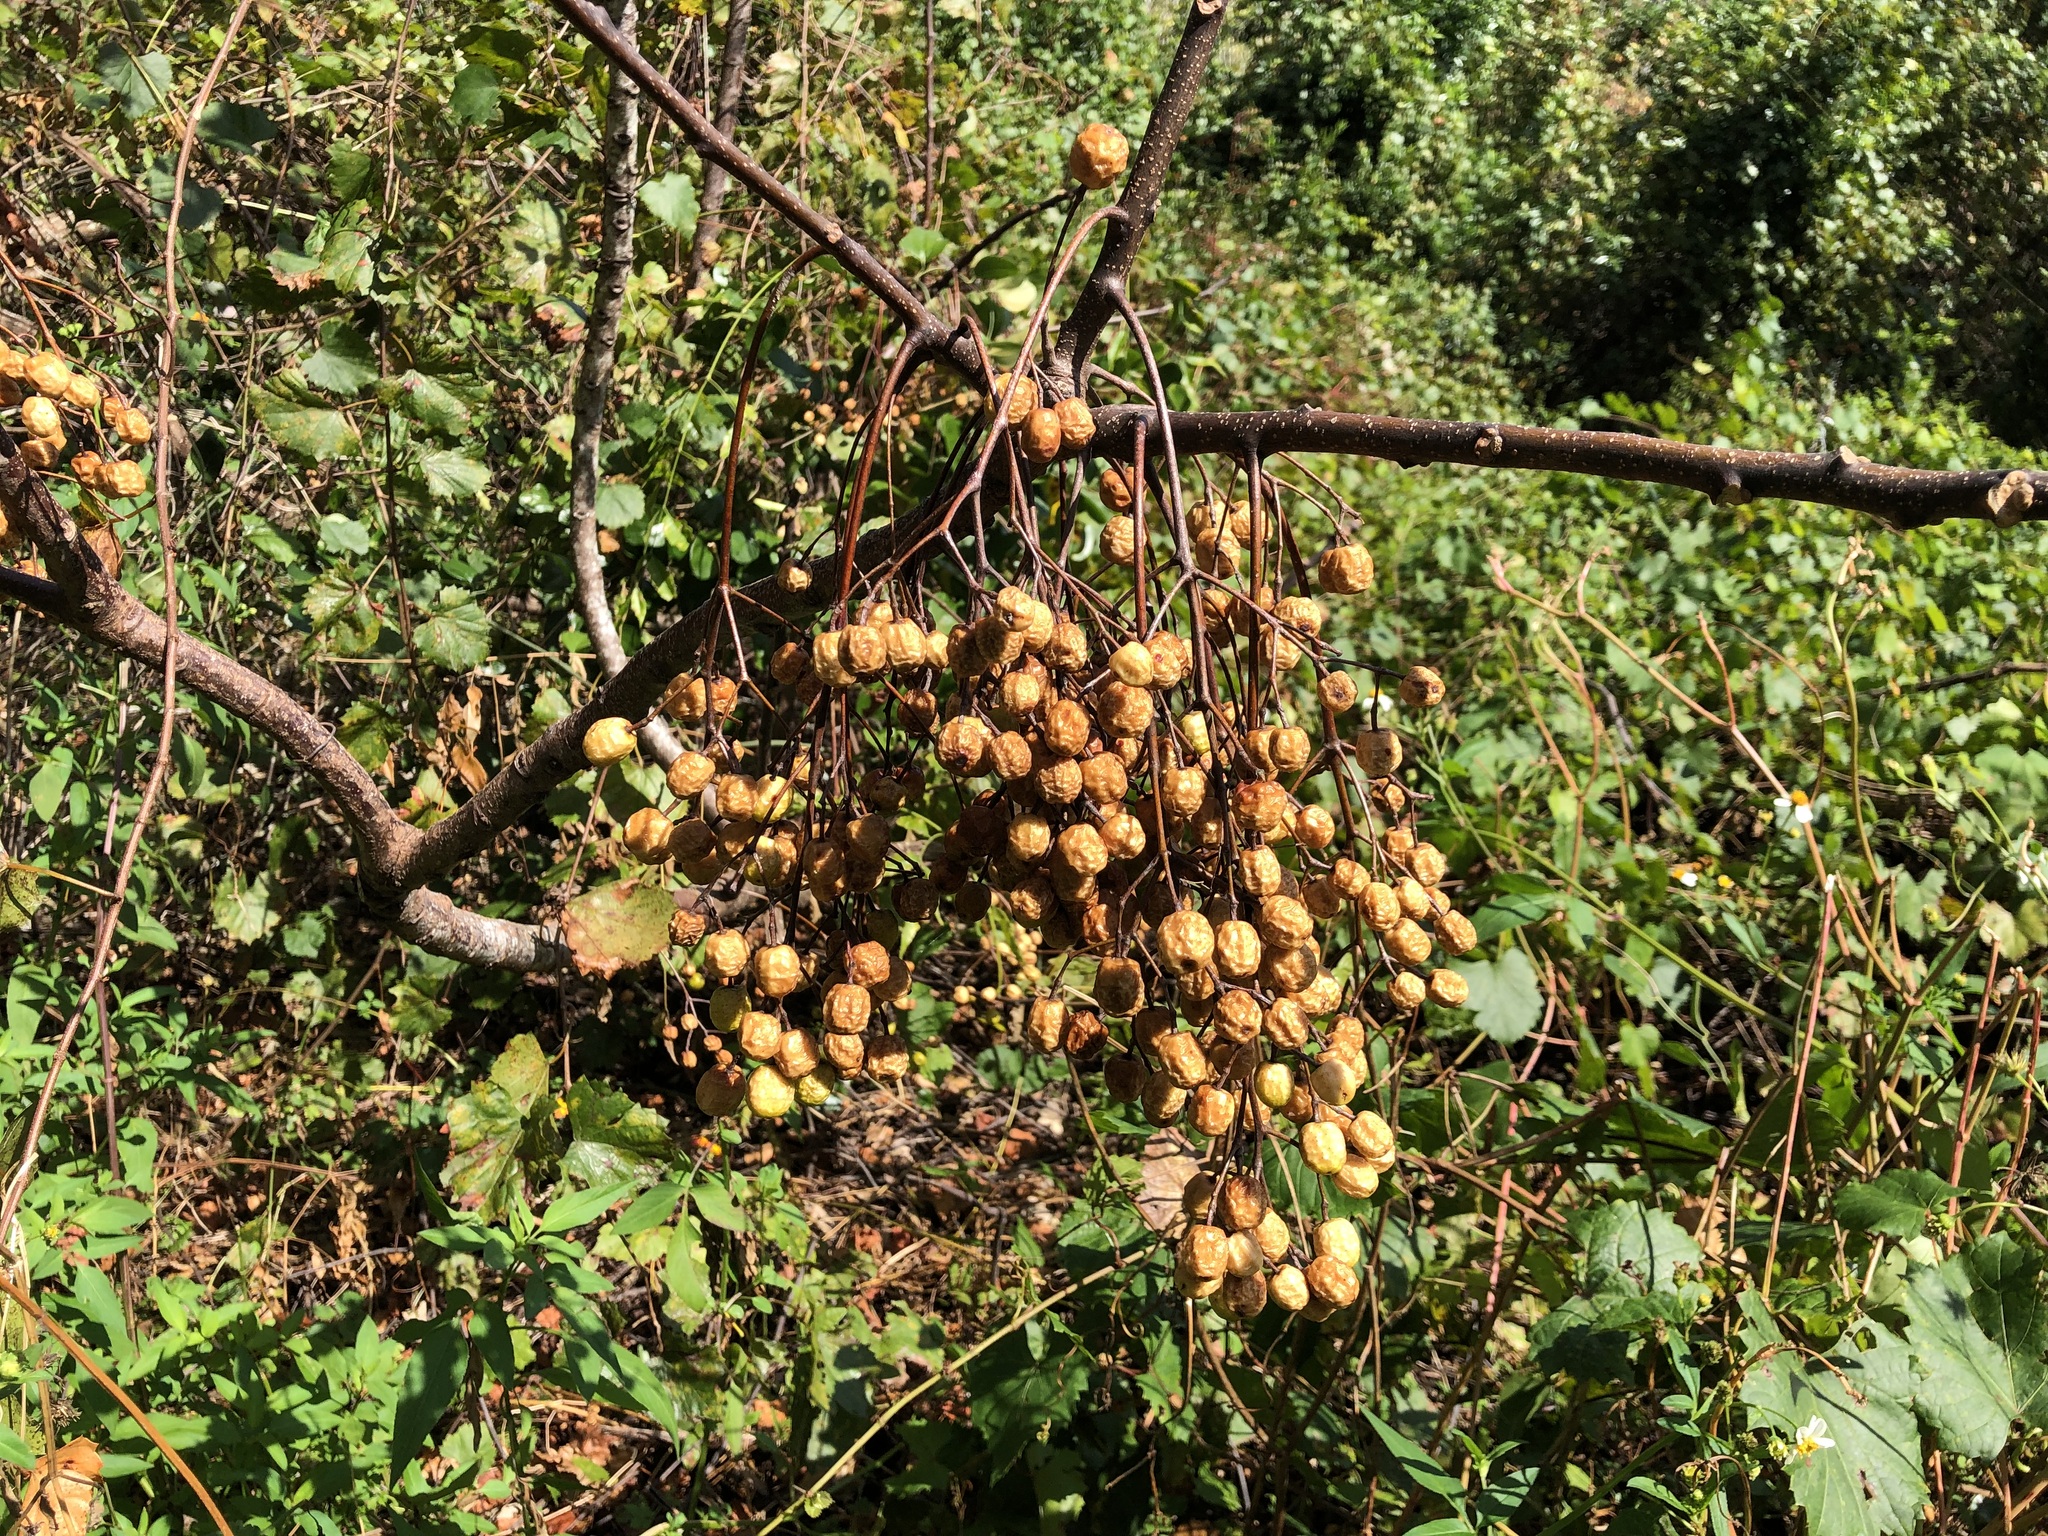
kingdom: Plantae
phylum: Tracheophyta
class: Magnoliopsida
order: Sapindales
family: Meliaceae
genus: Melia
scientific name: Melia azedarach
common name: Chinaberrytree
